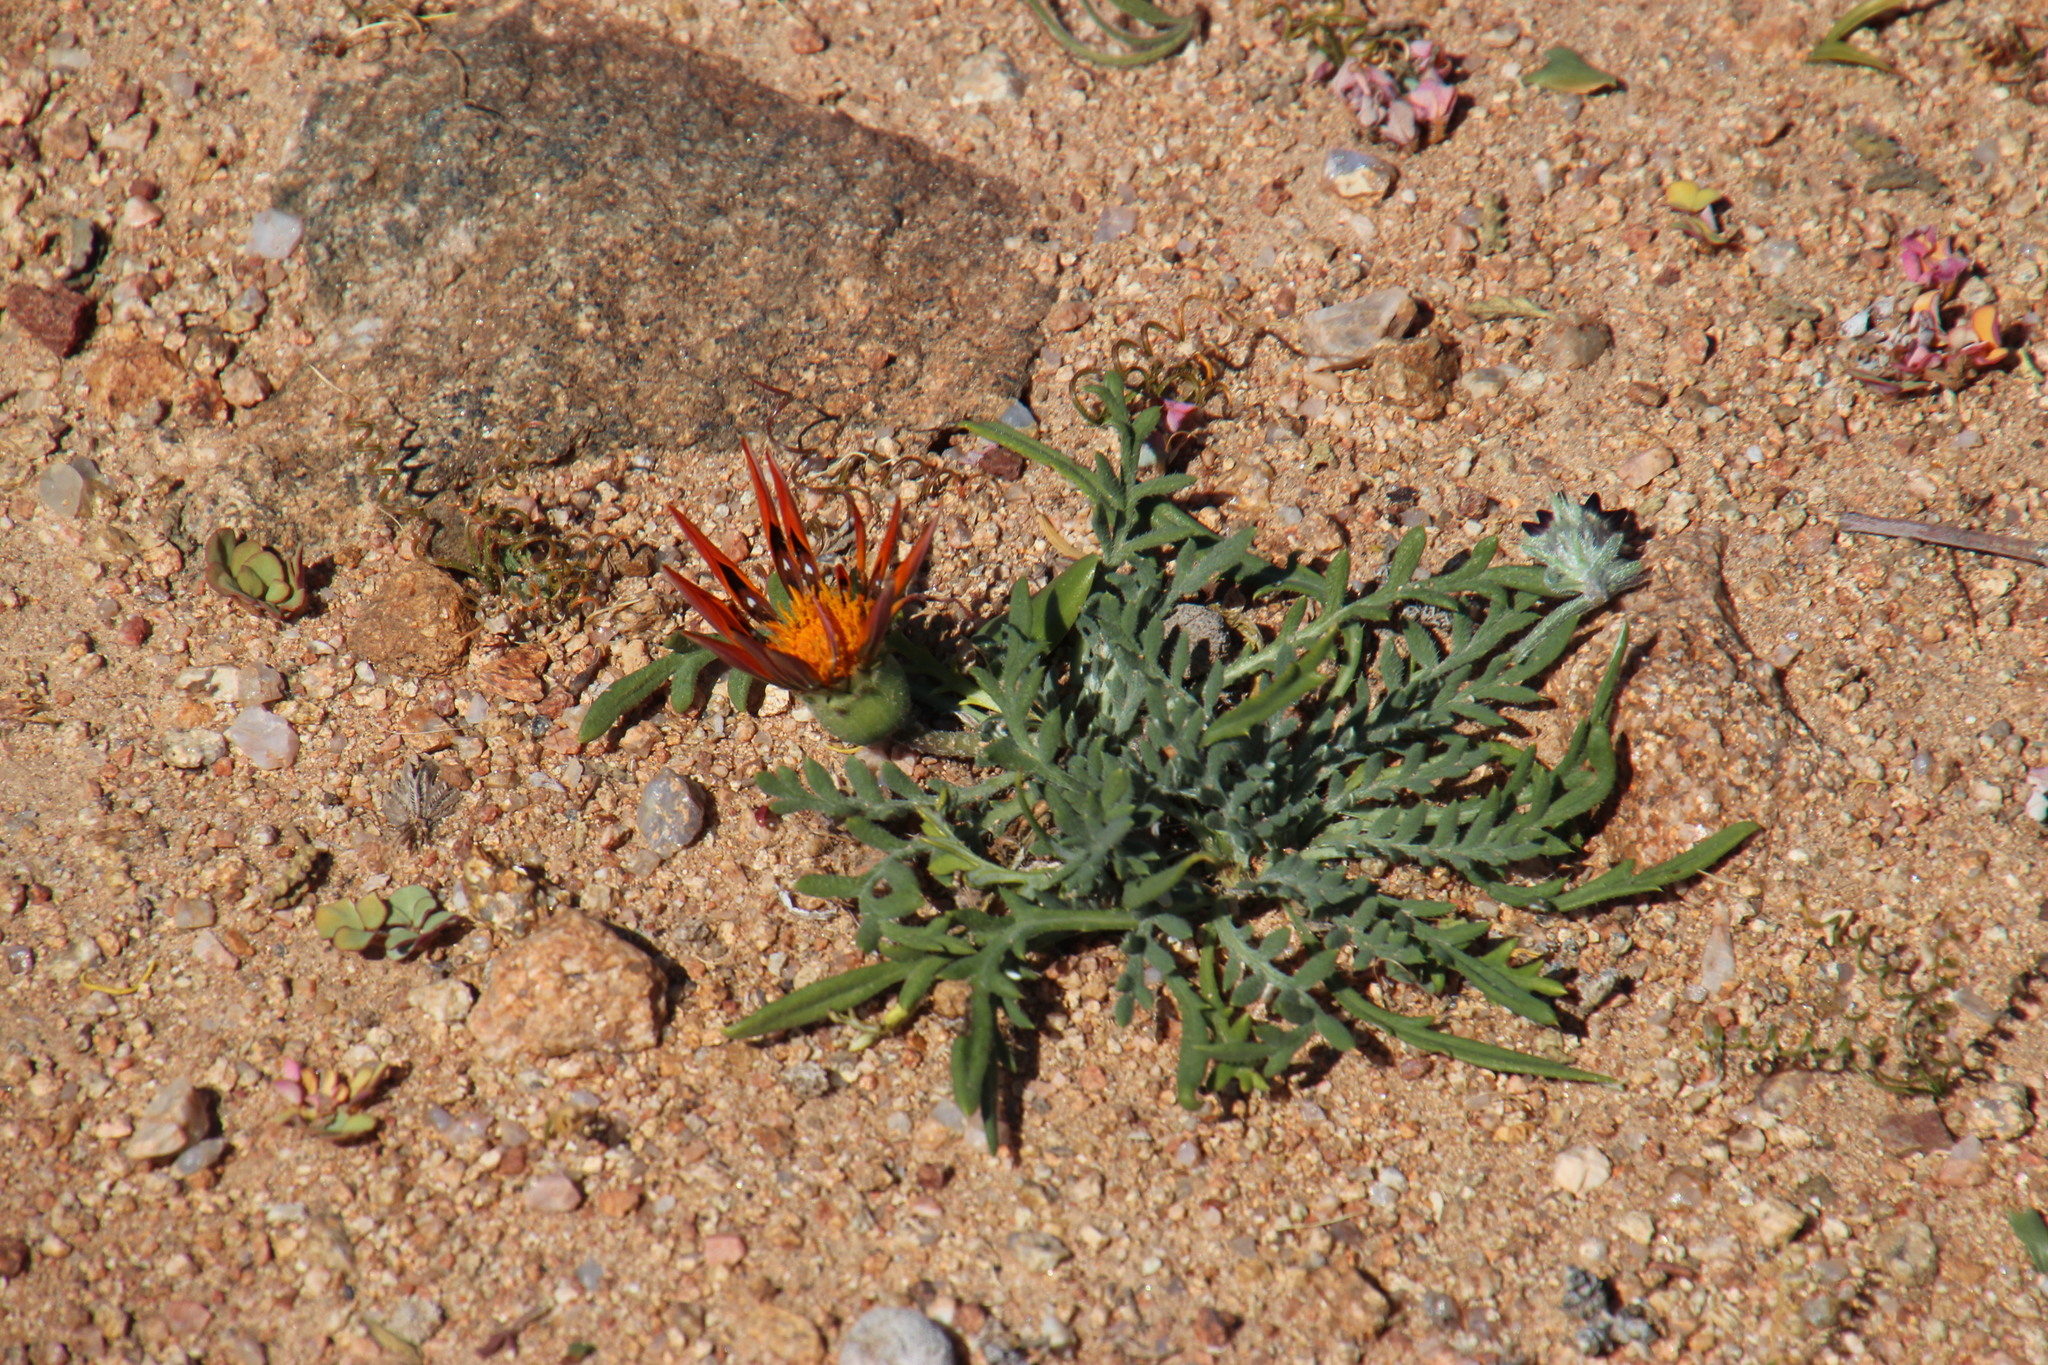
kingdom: Plantae
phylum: Tracheophyta
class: Magnoliopsida
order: Asterales
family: Asteraceae
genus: Gazania
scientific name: Gazania leiopoda
